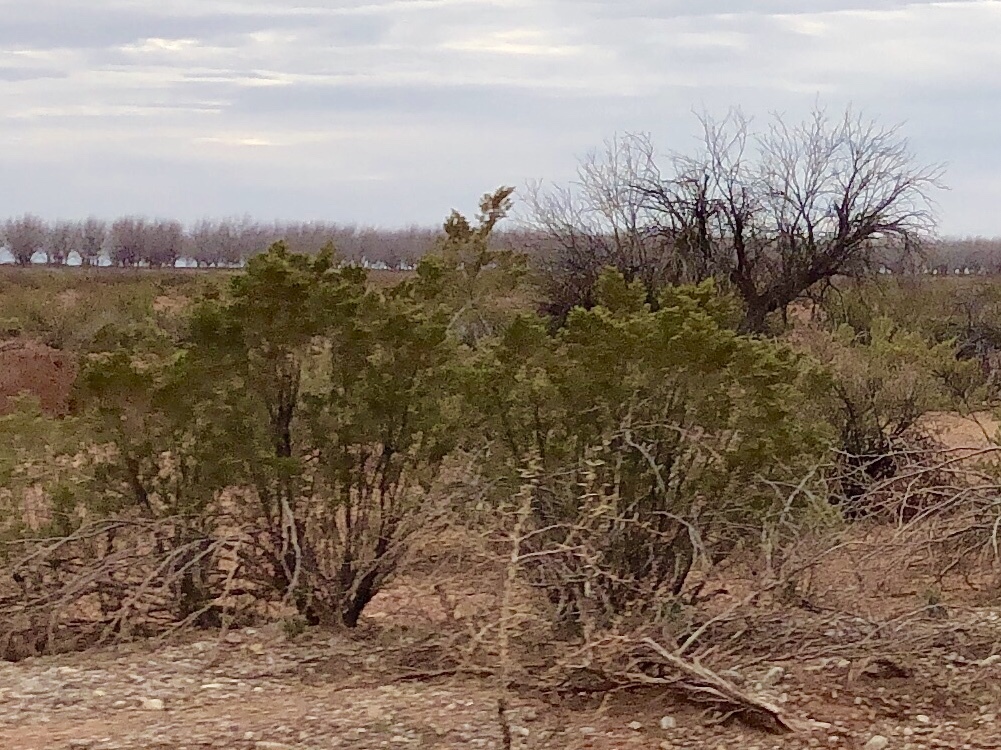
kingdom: Plantae
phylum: Tracheophyta
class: Magnoliopsida
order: Zygophyllales
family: Zygophyllaceae
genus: Larrea
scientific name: Larrea tridentata
